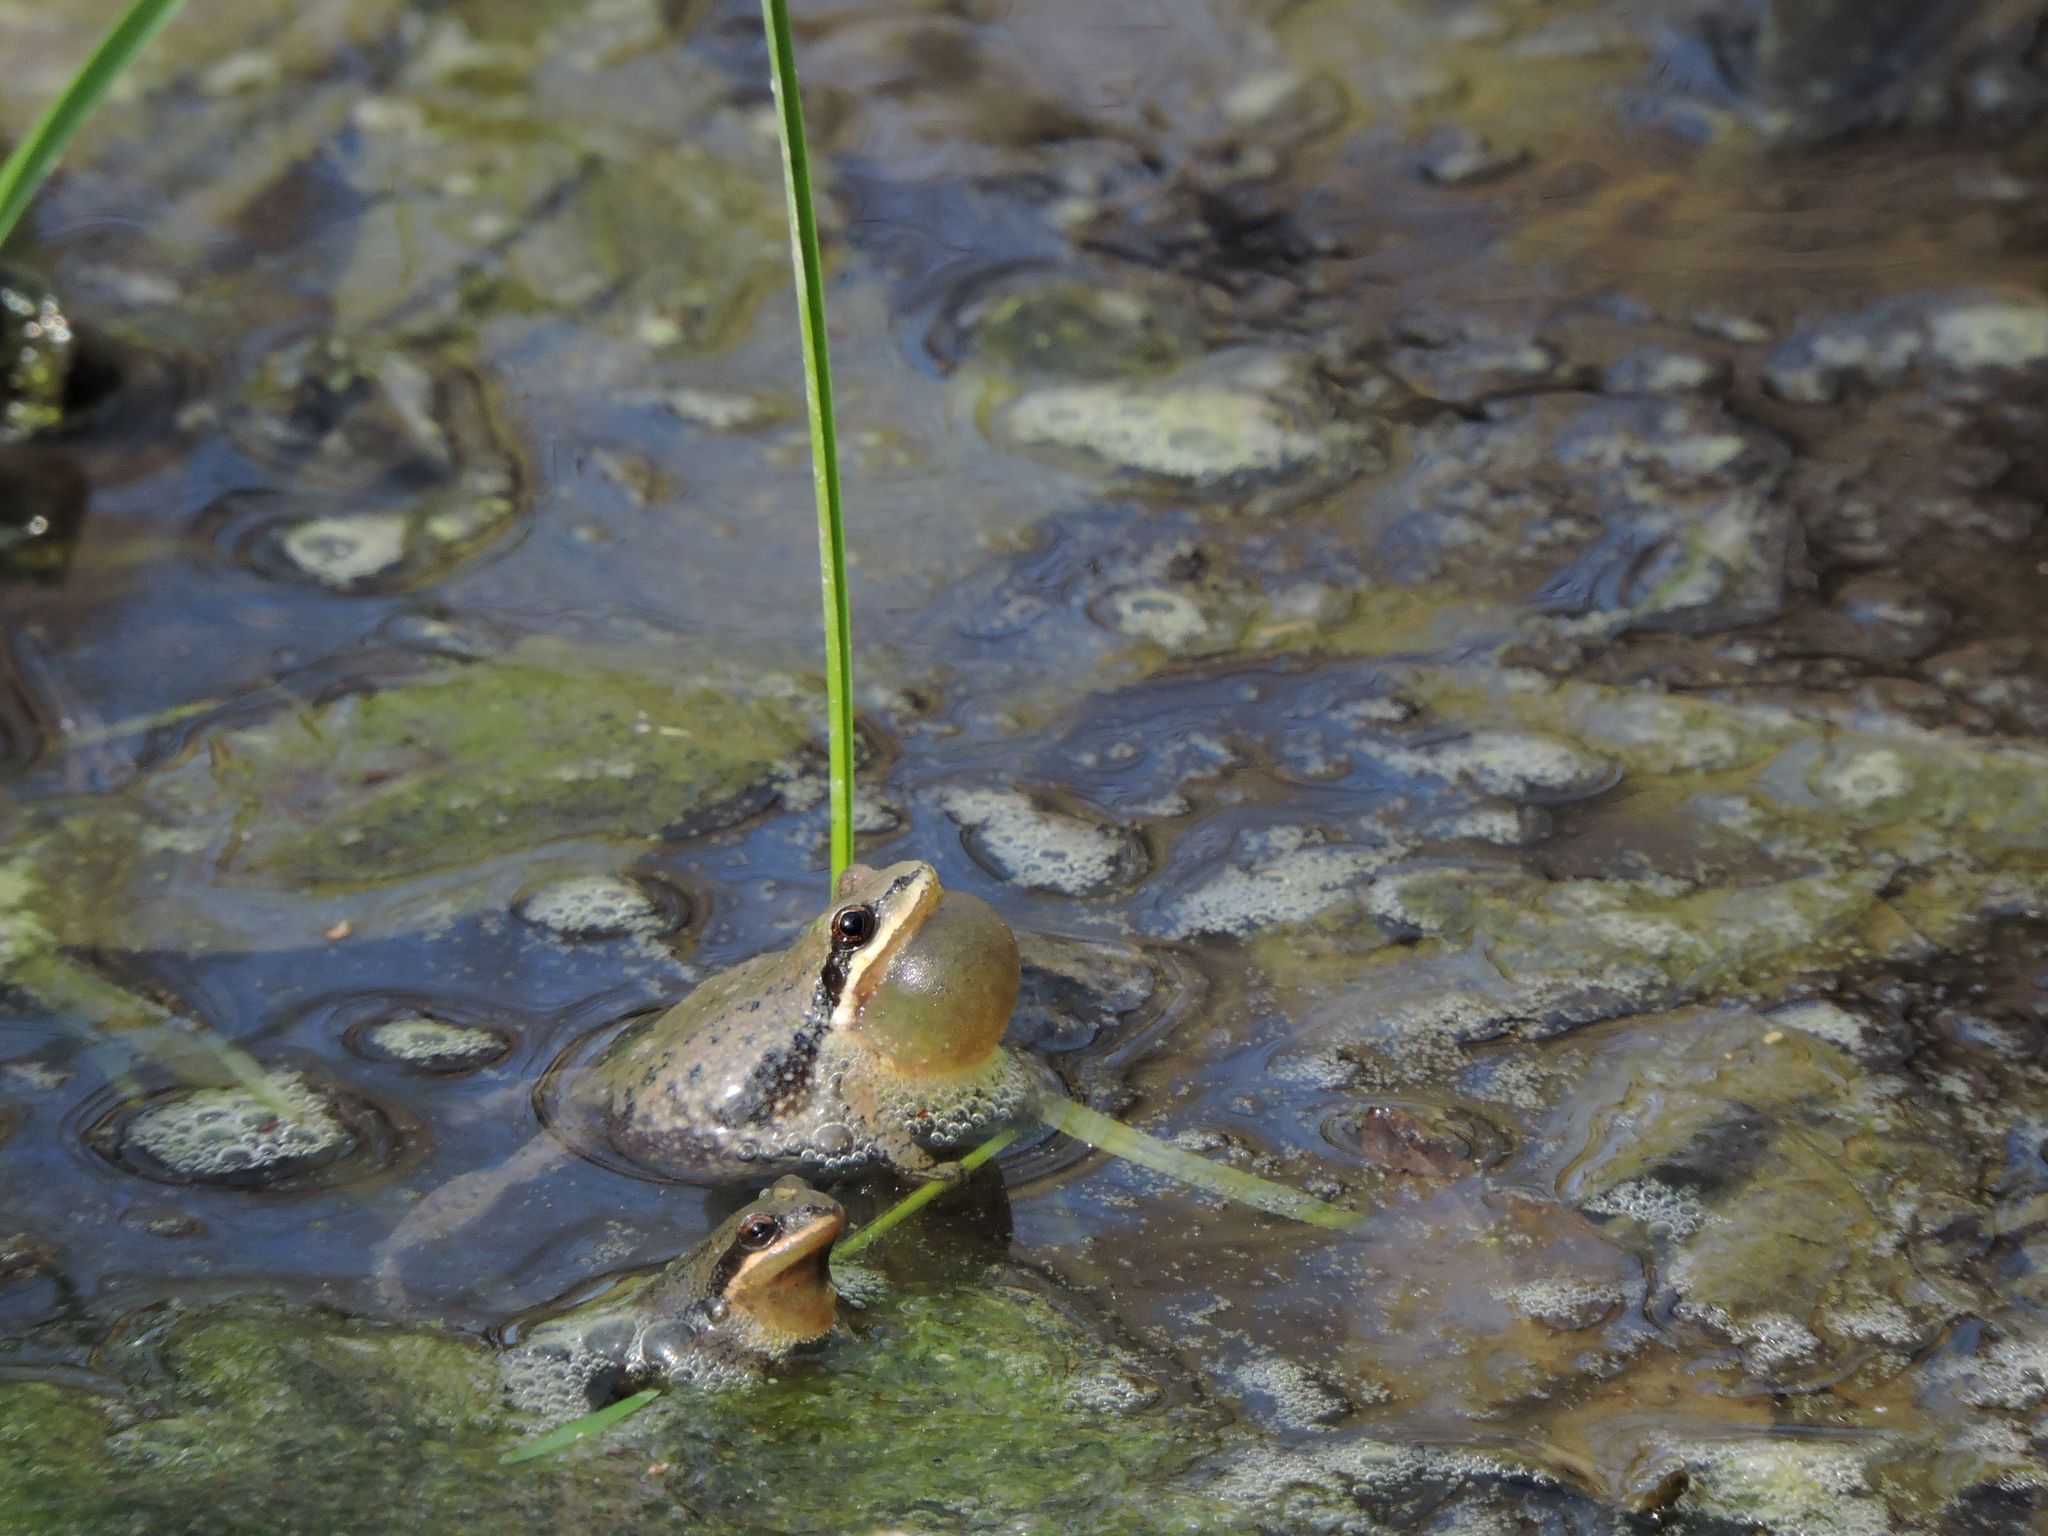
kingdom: Animalia
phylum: Chordata
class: Amphibia
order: Anura
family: Hylidae
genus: Pseudacris
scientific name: Pseudacris feriarum
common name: Upland chorus frog
